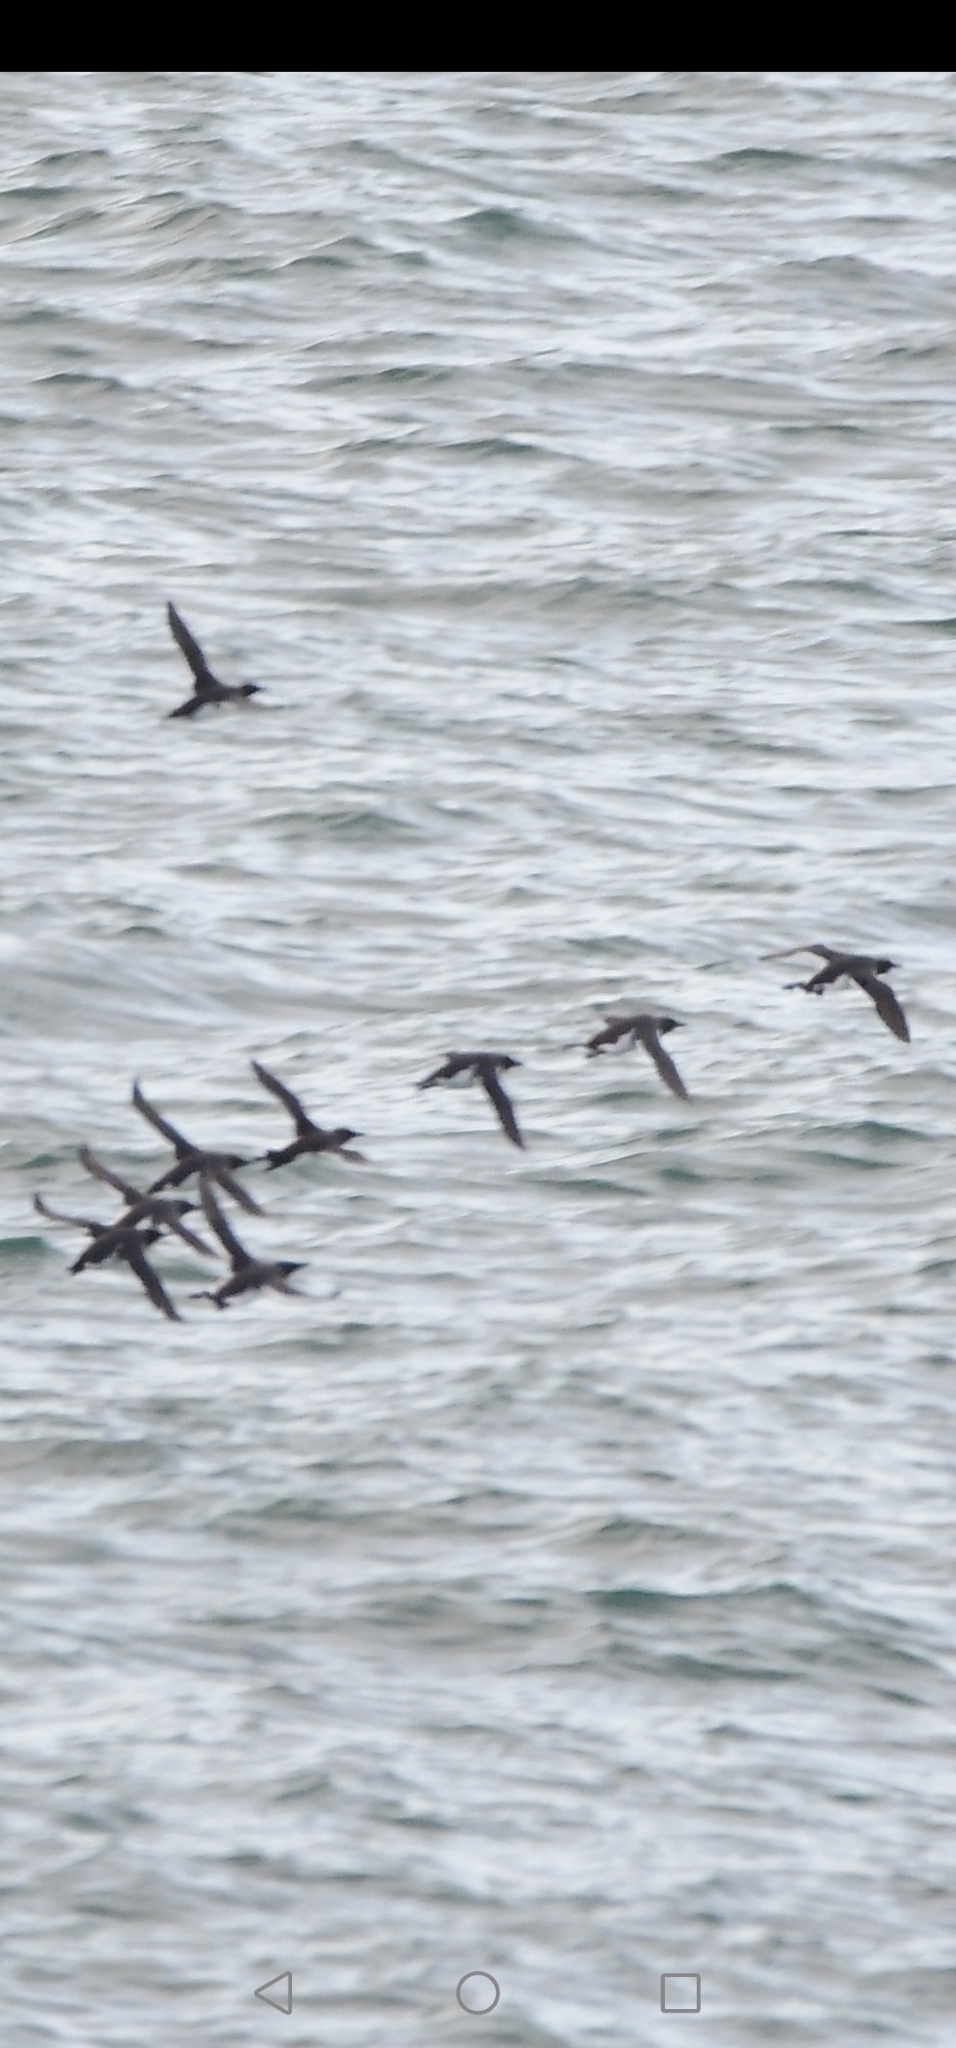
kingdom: Animalia
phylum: Chordata
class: Aves
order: Charadriiformes
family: Alcidae
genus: Uria
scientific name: Uria aalge
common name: Common murre
